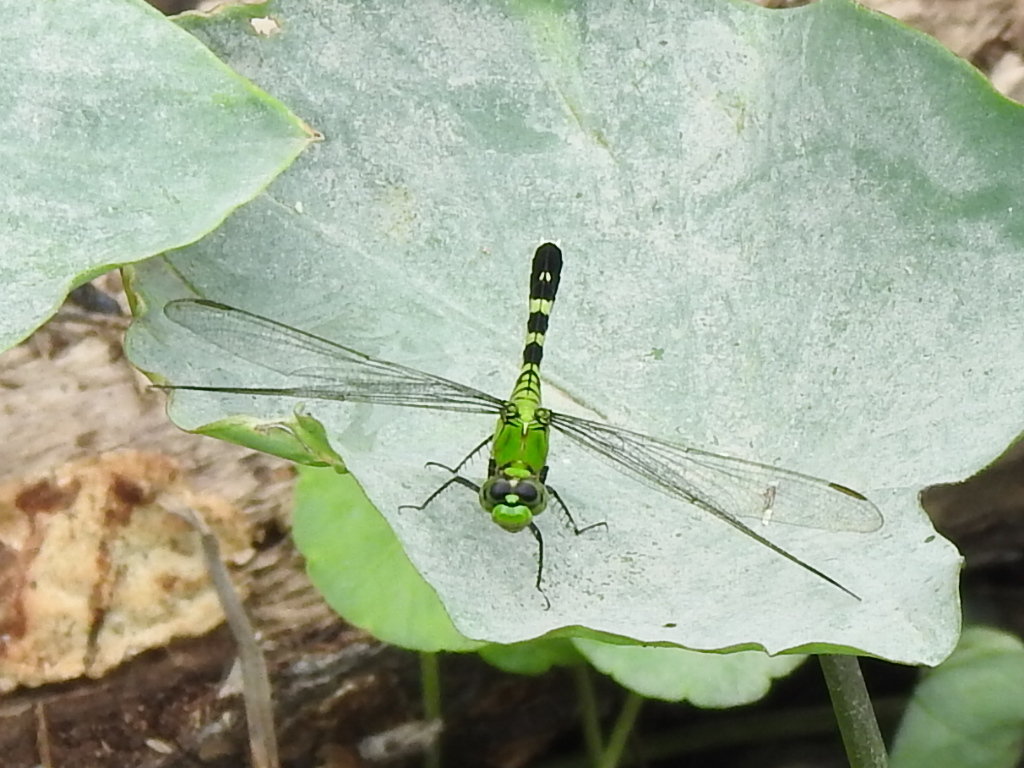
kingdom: Animalia
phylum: Arthropoda
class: Insecta
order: Odonata
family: Libellulidae
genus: Erythemis
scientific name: Erythemis simplicicollis
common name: Eastern pondhawk
